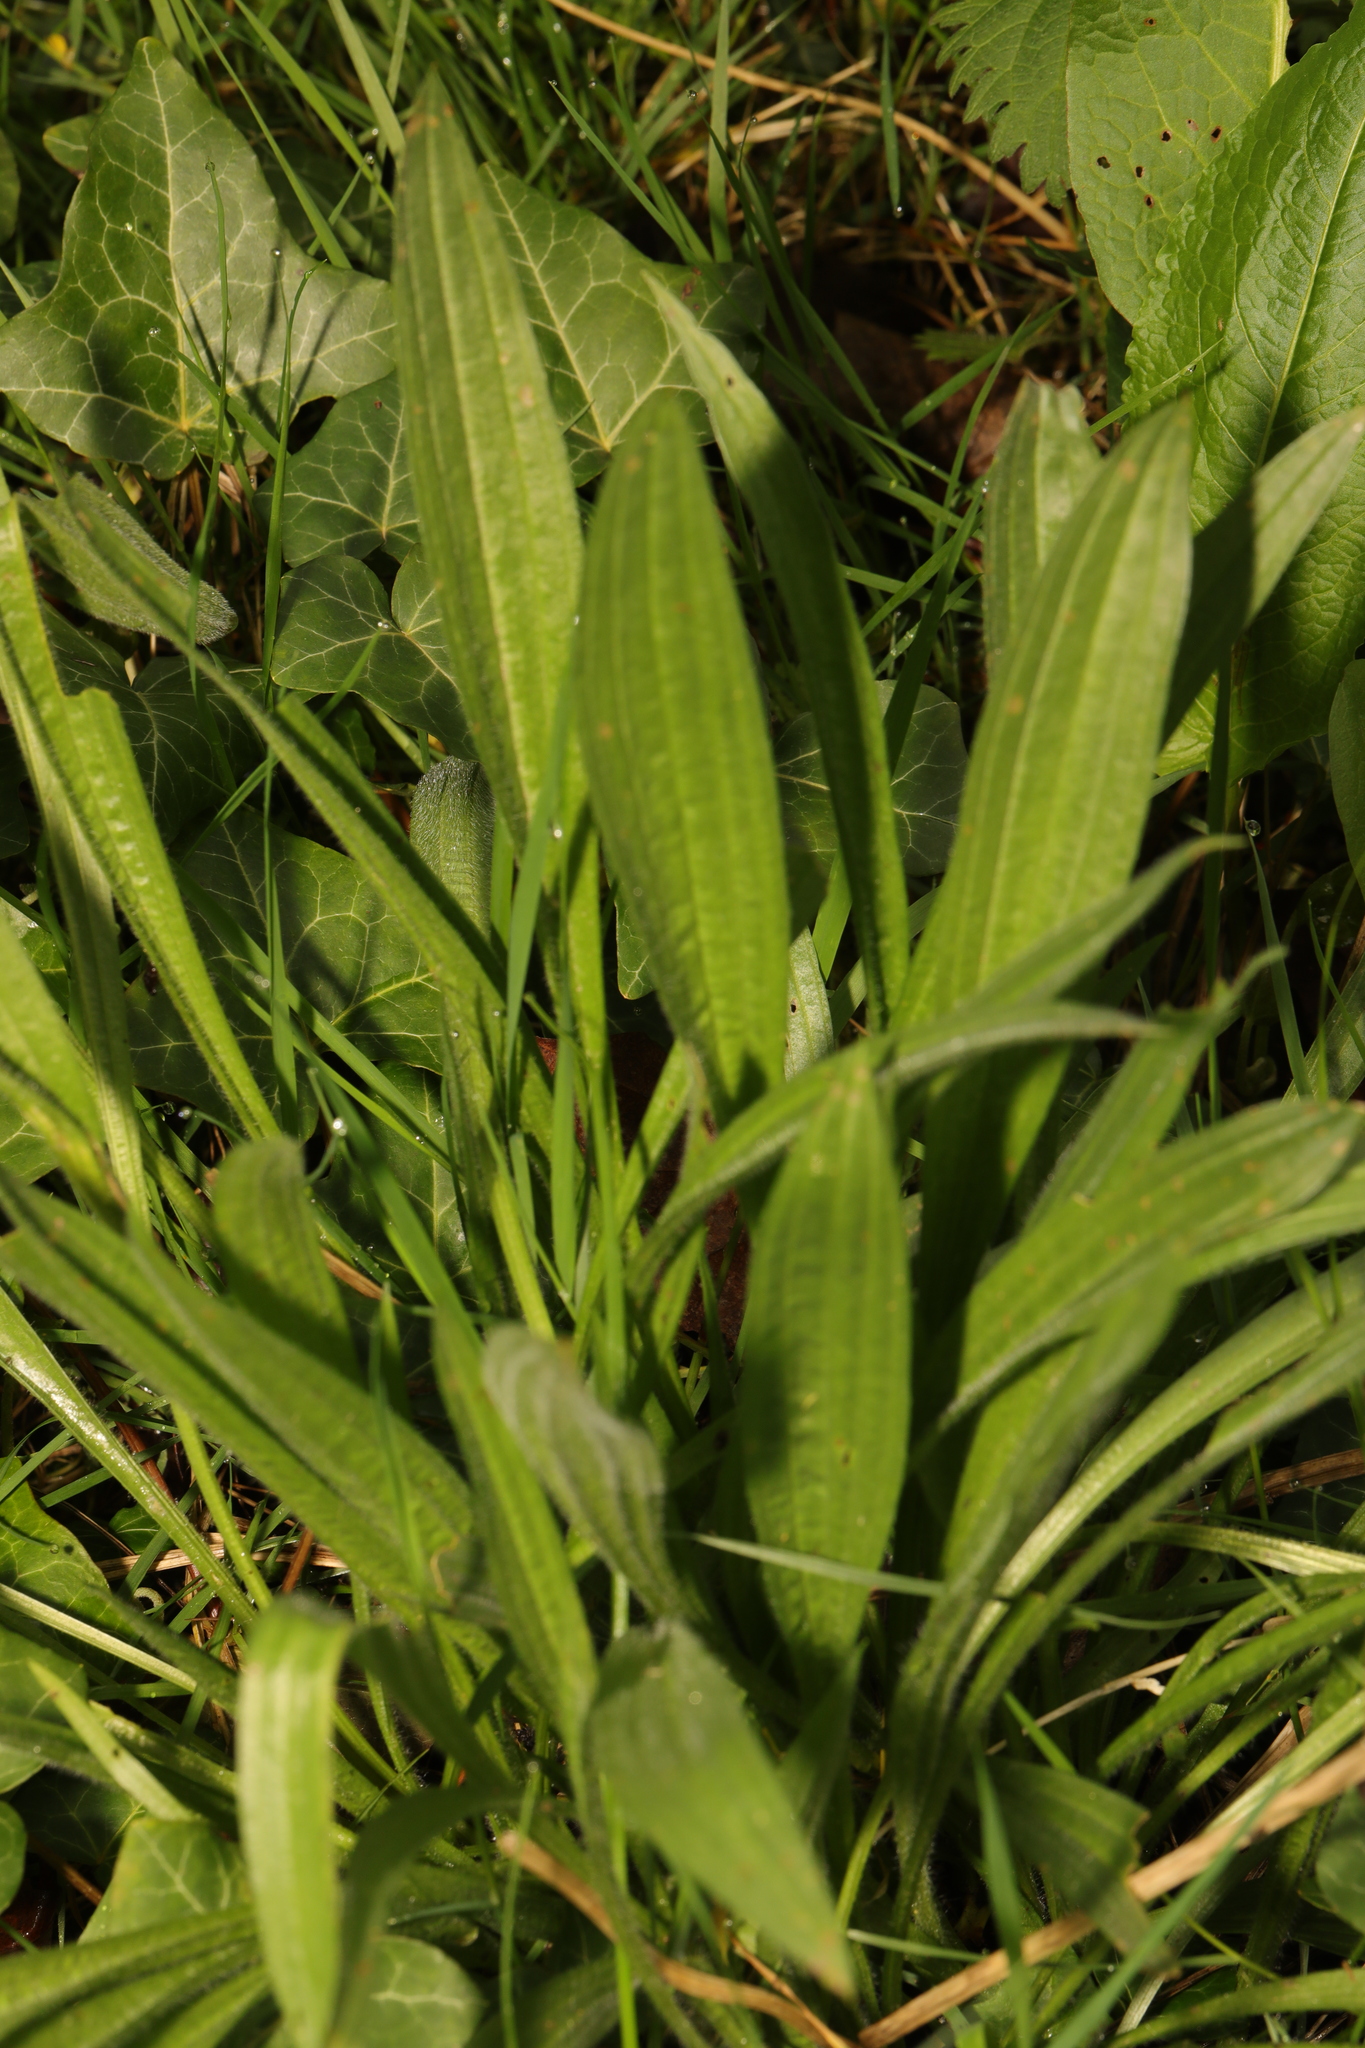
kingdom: Plantae
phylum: Tracheophyta
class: Magnoliopsida
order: Lamiales
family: Plantaginaceae
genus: Plantago
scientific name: Plantago lanceolata
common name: Ribwort plantain
